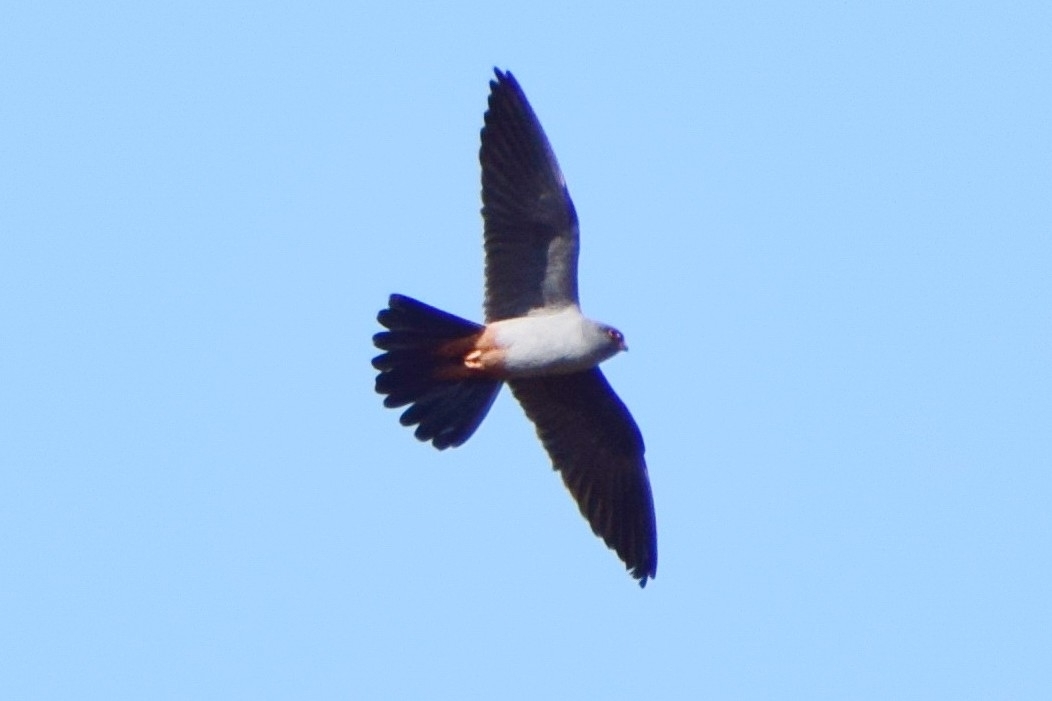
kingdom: Animalia
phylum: Chordata
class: Aves
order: Falconiformes
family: Falconidae
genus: Falco
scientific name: Falco vespertinus
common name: Red-footed falcon
